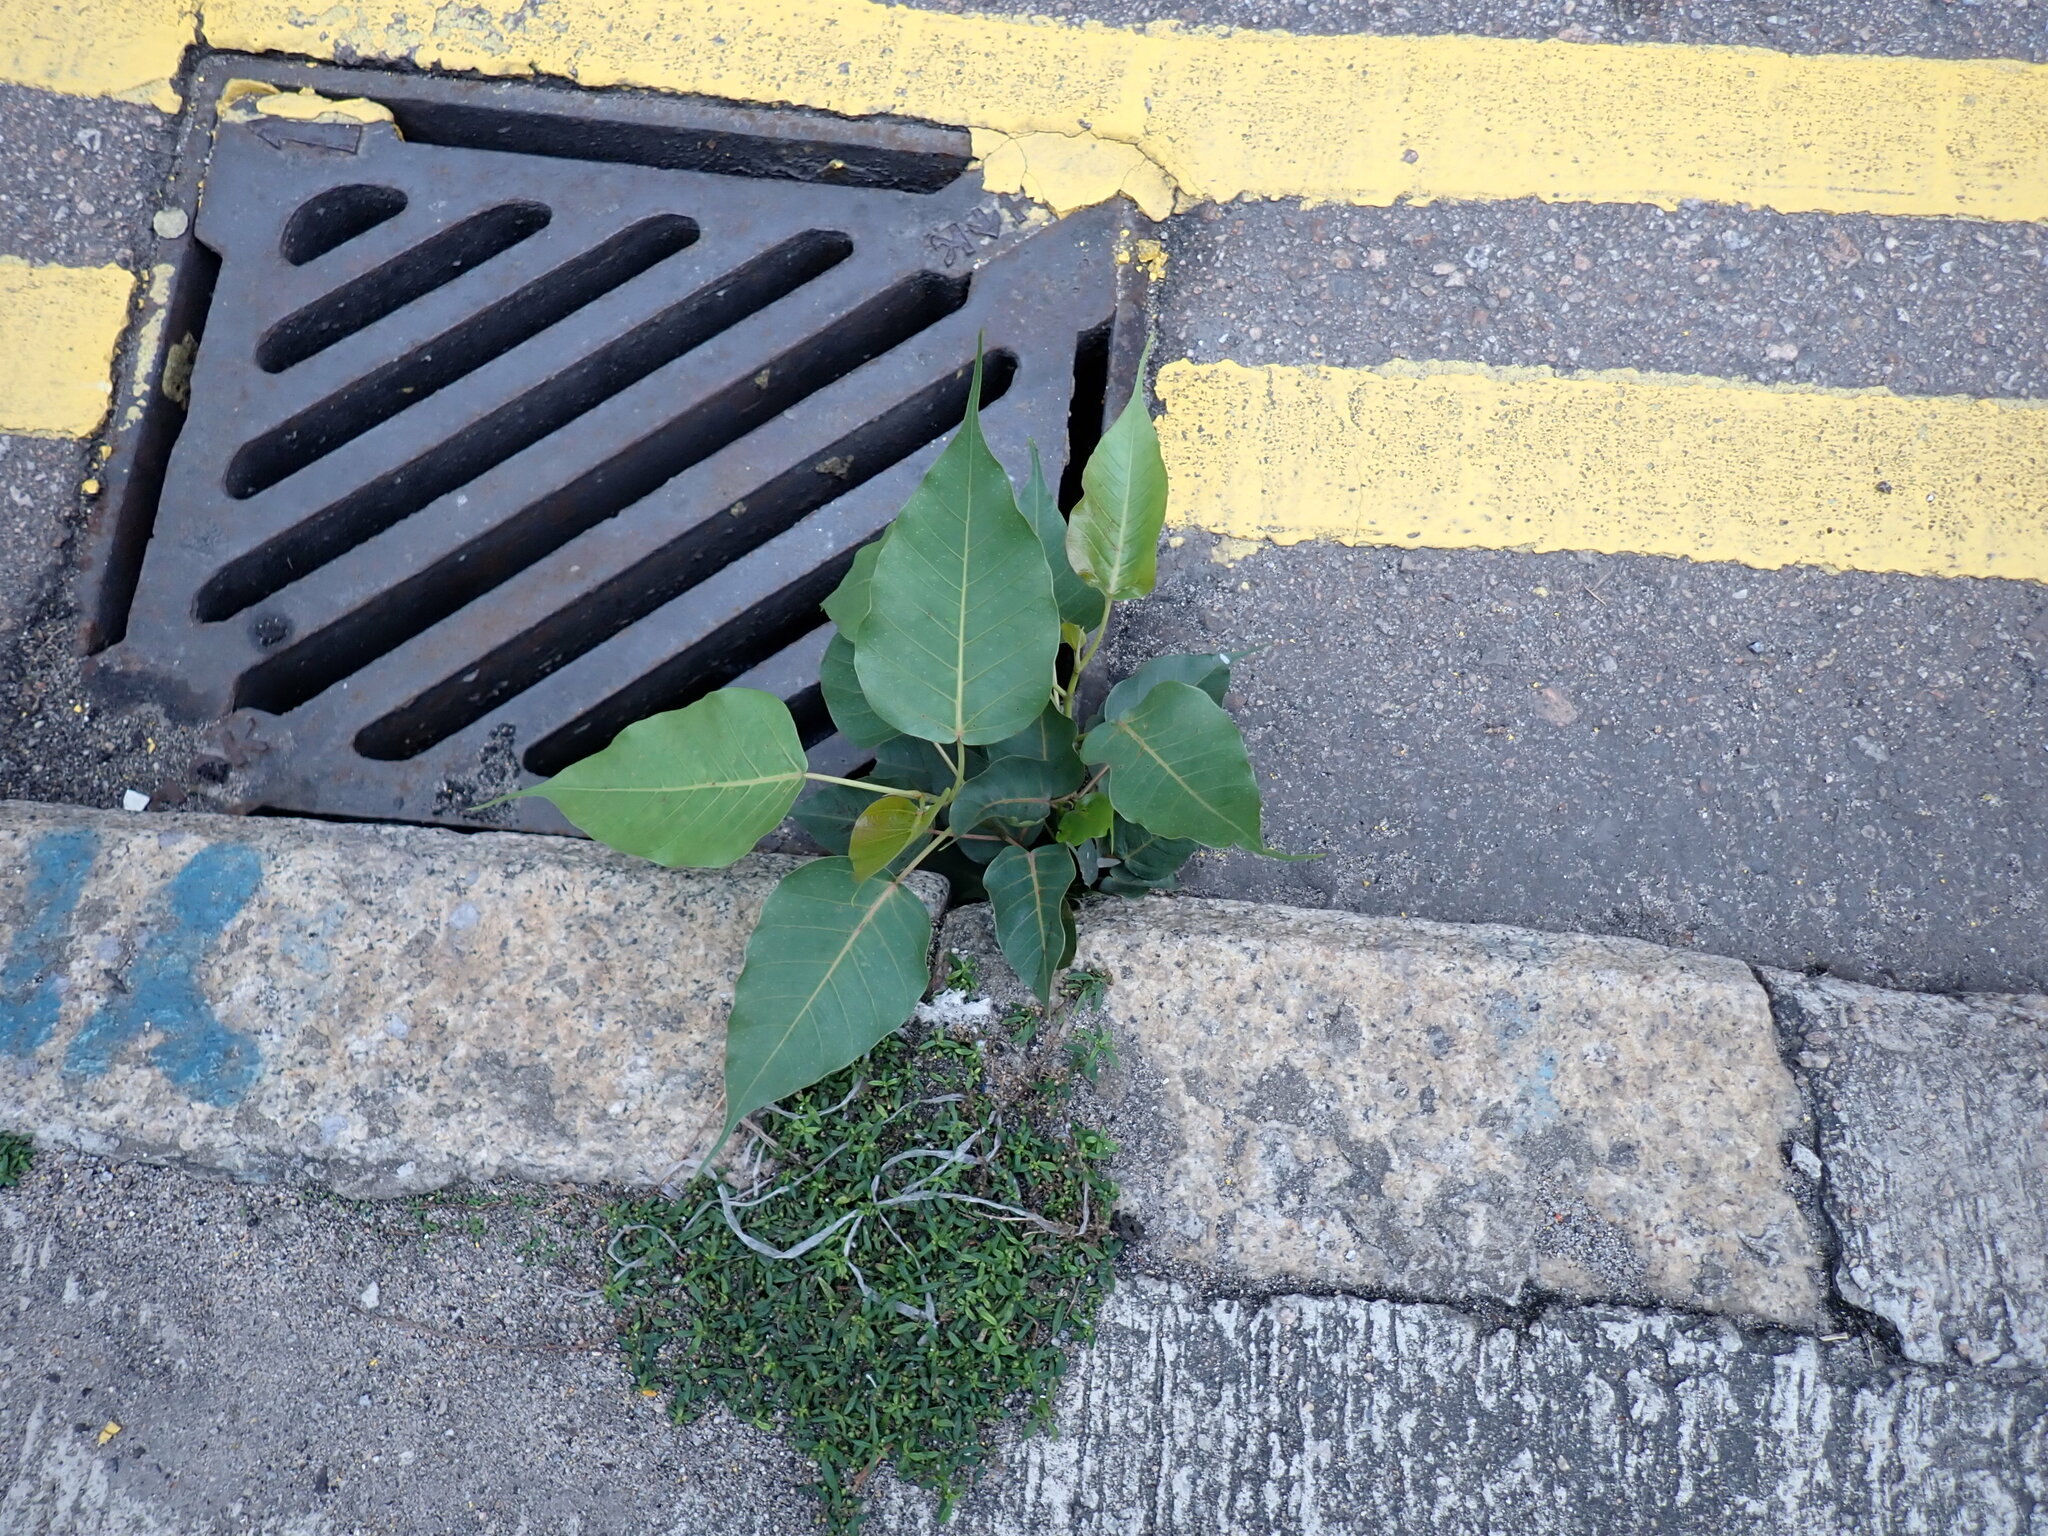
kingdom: Plantae
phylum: Tracheophyta
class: Magnoliopsida
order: Rosales
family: Moraceae
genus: Ficus
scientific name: Ficus religiosa
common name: Bodhi tree
